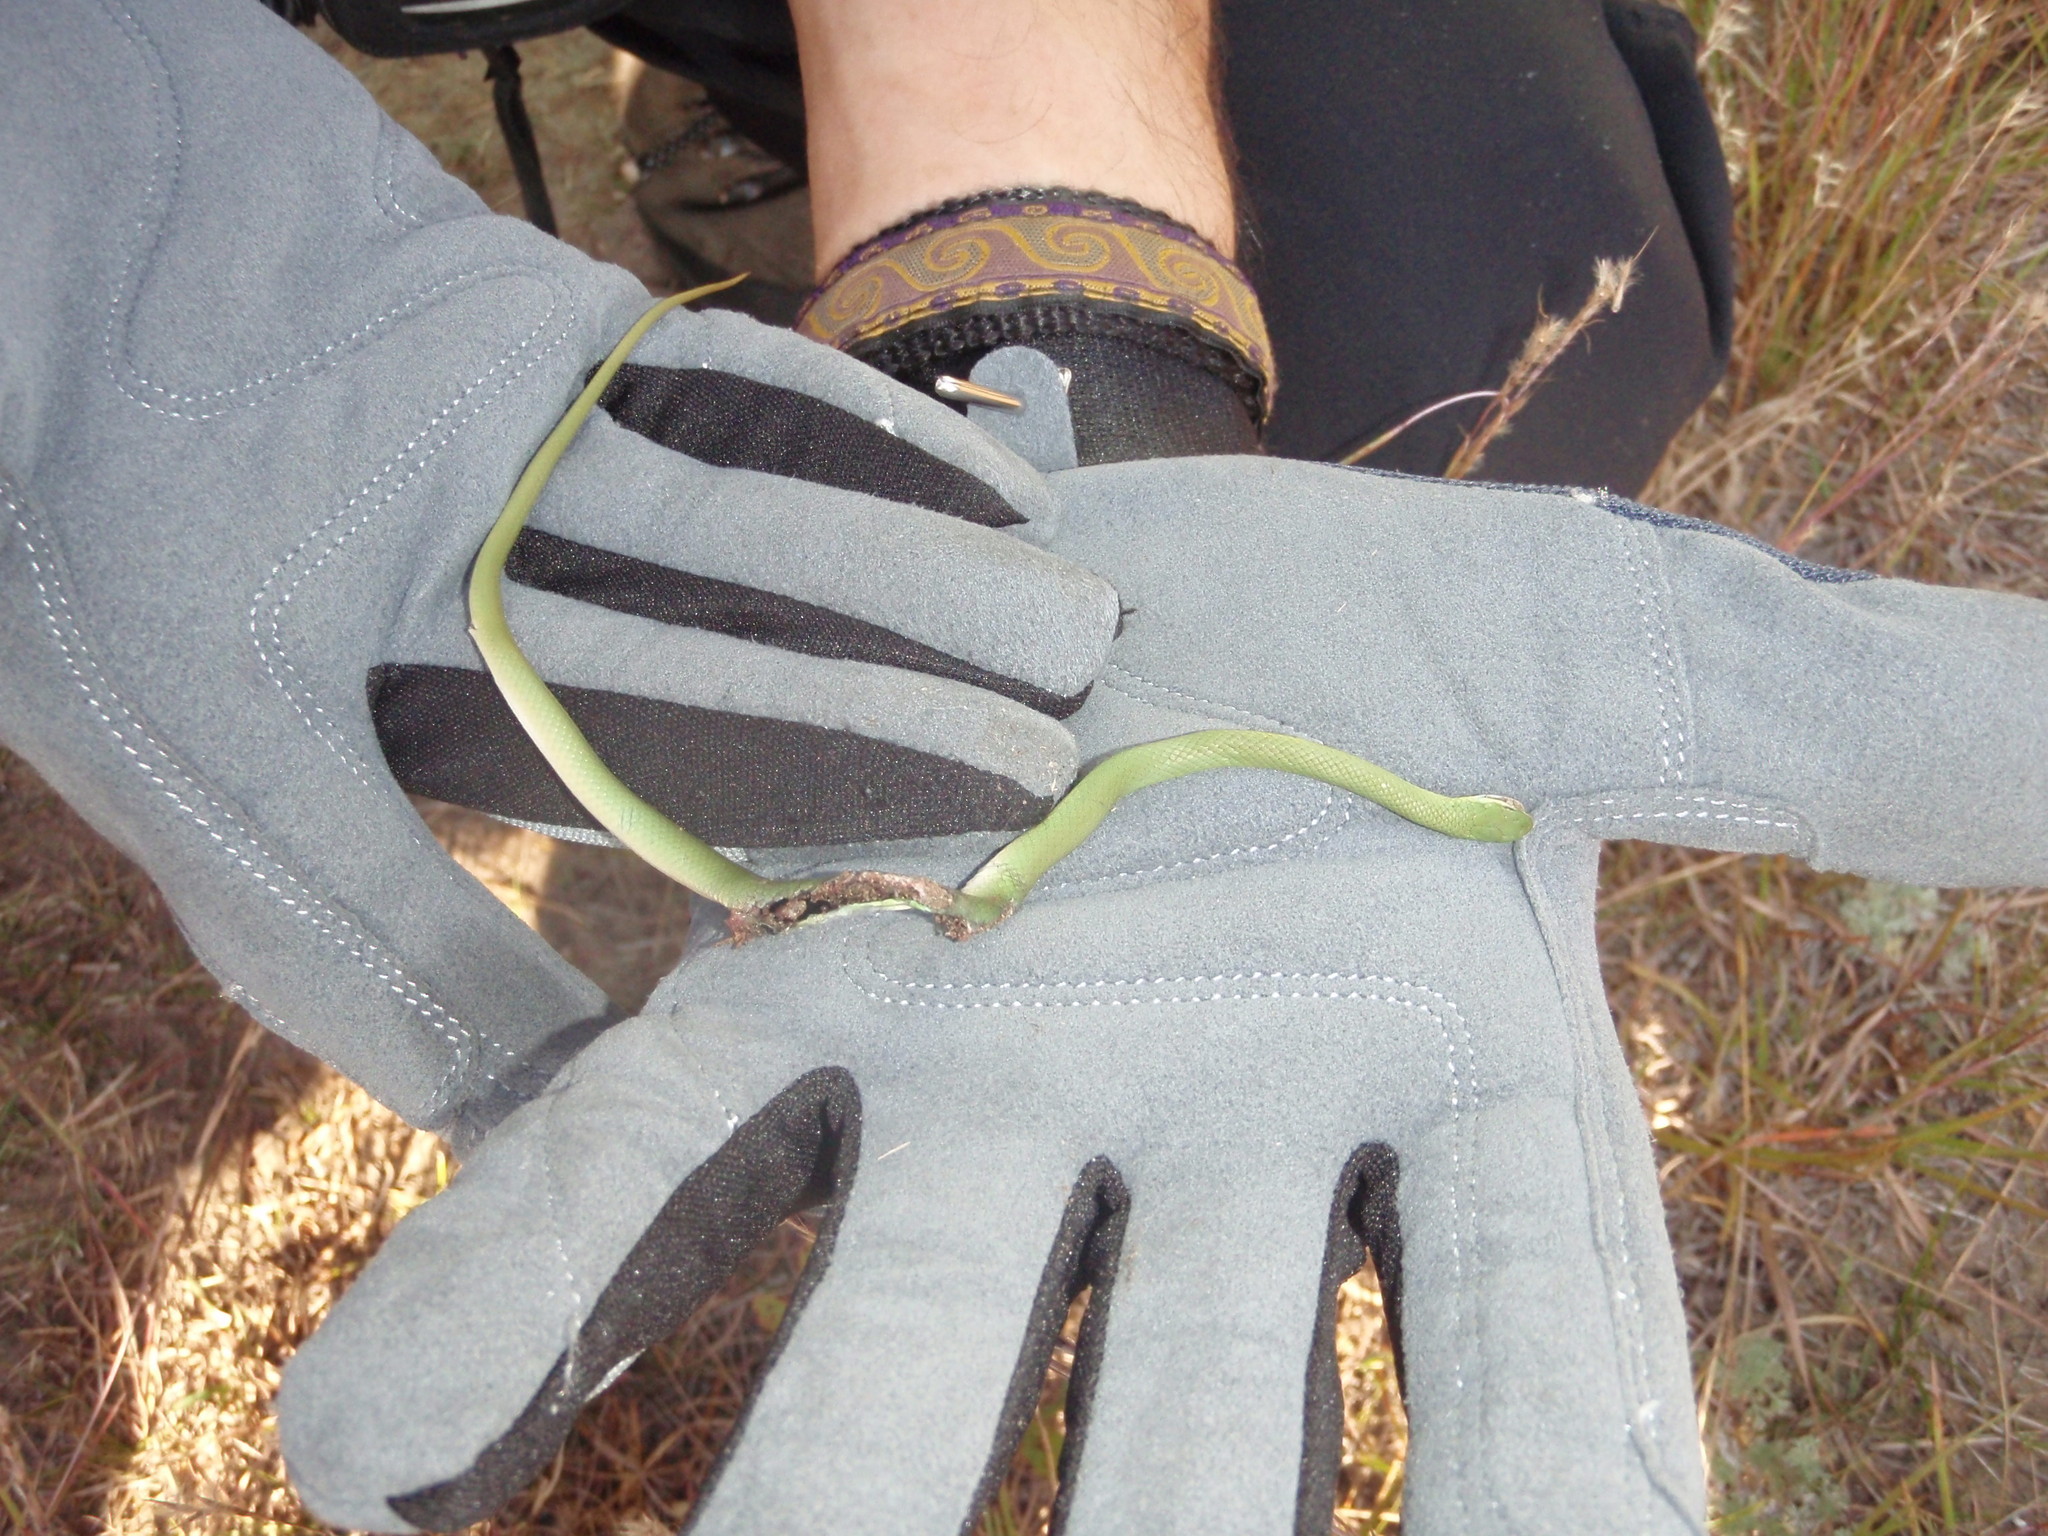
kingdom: Animalia
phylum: Chordata
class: Squamata
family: Colubridae
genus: Opheodrys
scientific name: Opheodrys vernalis
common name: Smooth green snake
